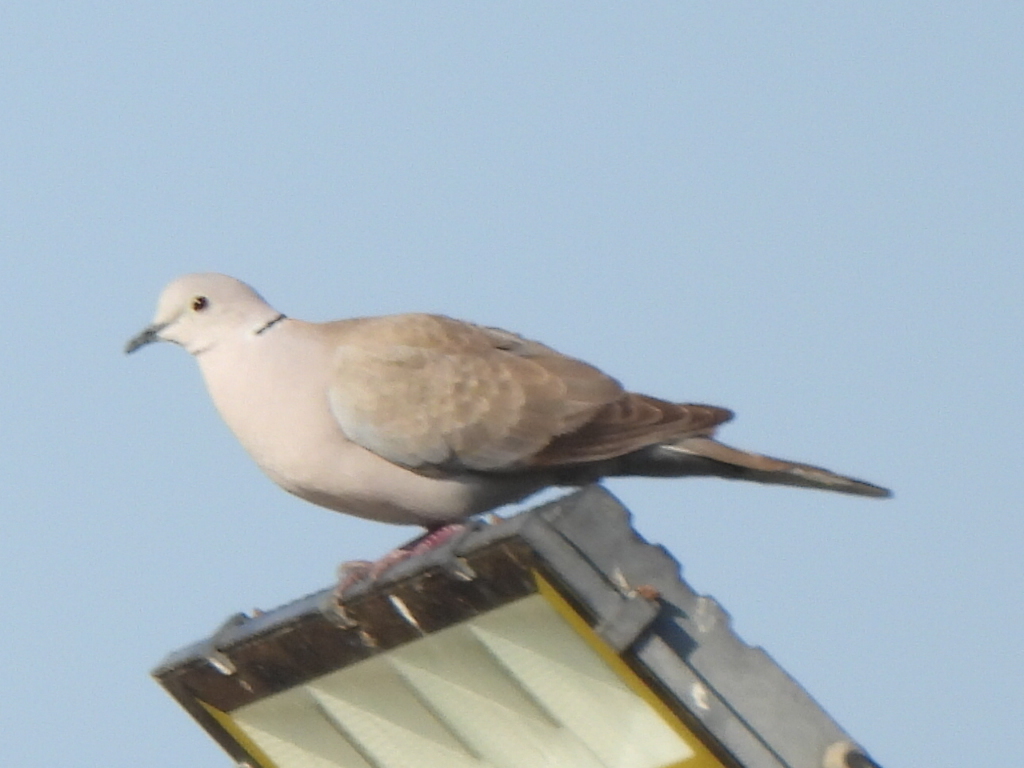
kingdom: Animalia
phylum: Chordata
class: Aves
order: Columbiformes
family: Columbidae
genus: Streptopelia
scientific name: Streptopelia decaocto
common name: Eurasian collared dove
